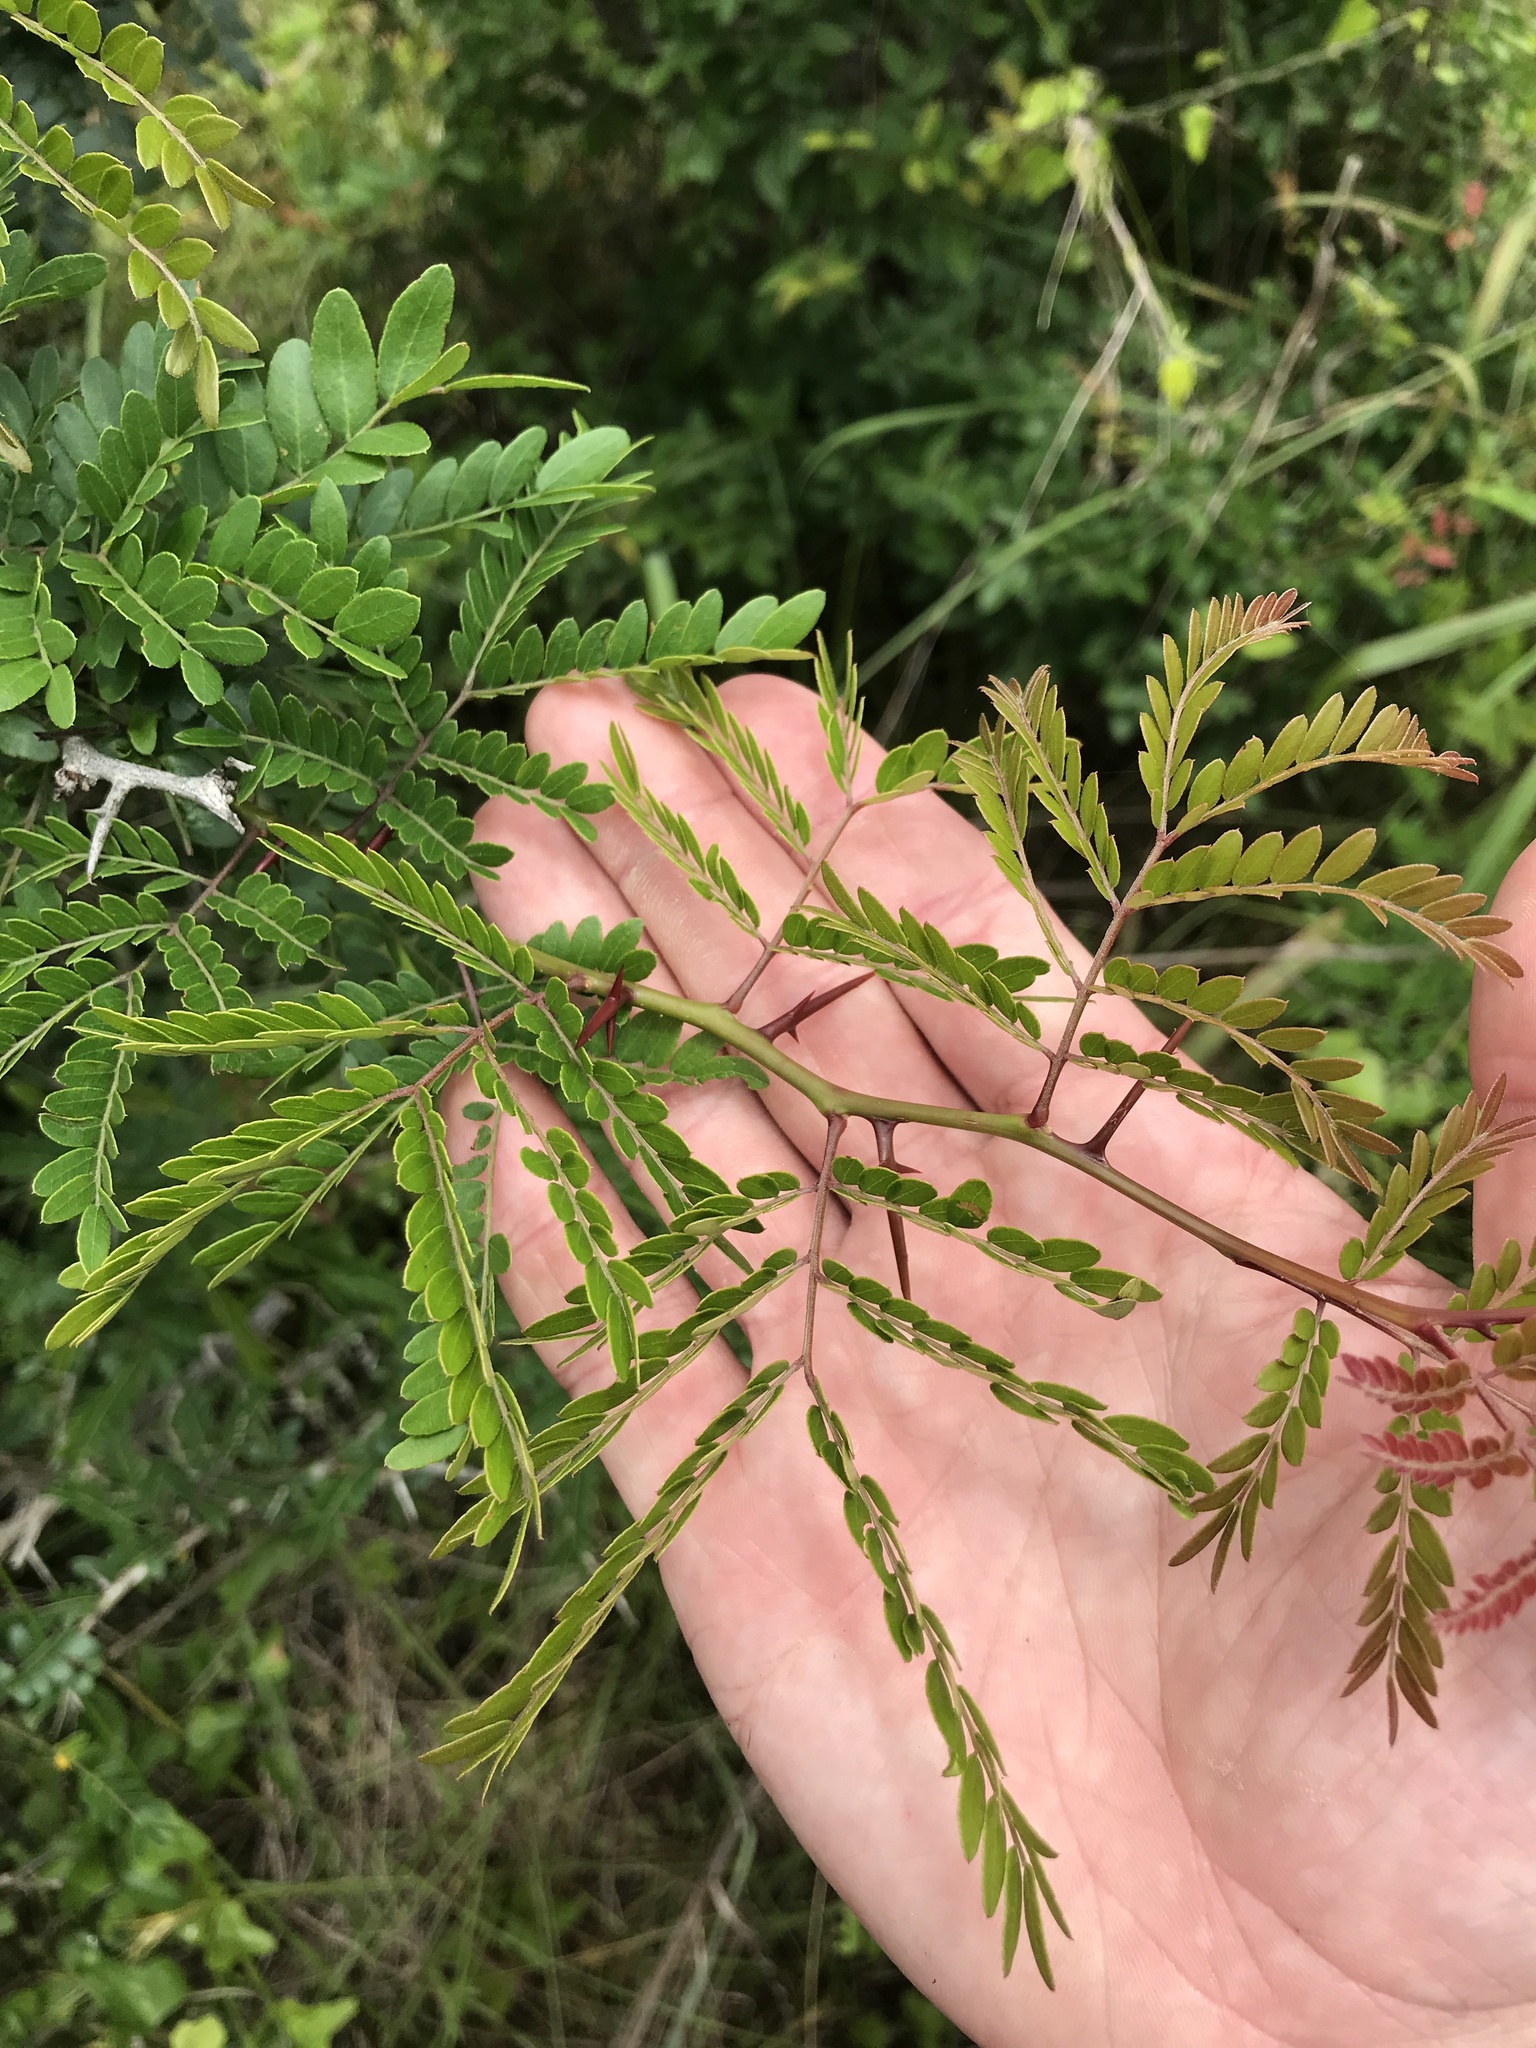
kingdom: Plantae
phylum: Tracheophyta
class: Magnoliopsida
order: Fabales
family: Fabaceae
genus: Gleditsia
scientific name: Gleditsia triacanthos
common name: Common honeylocust
